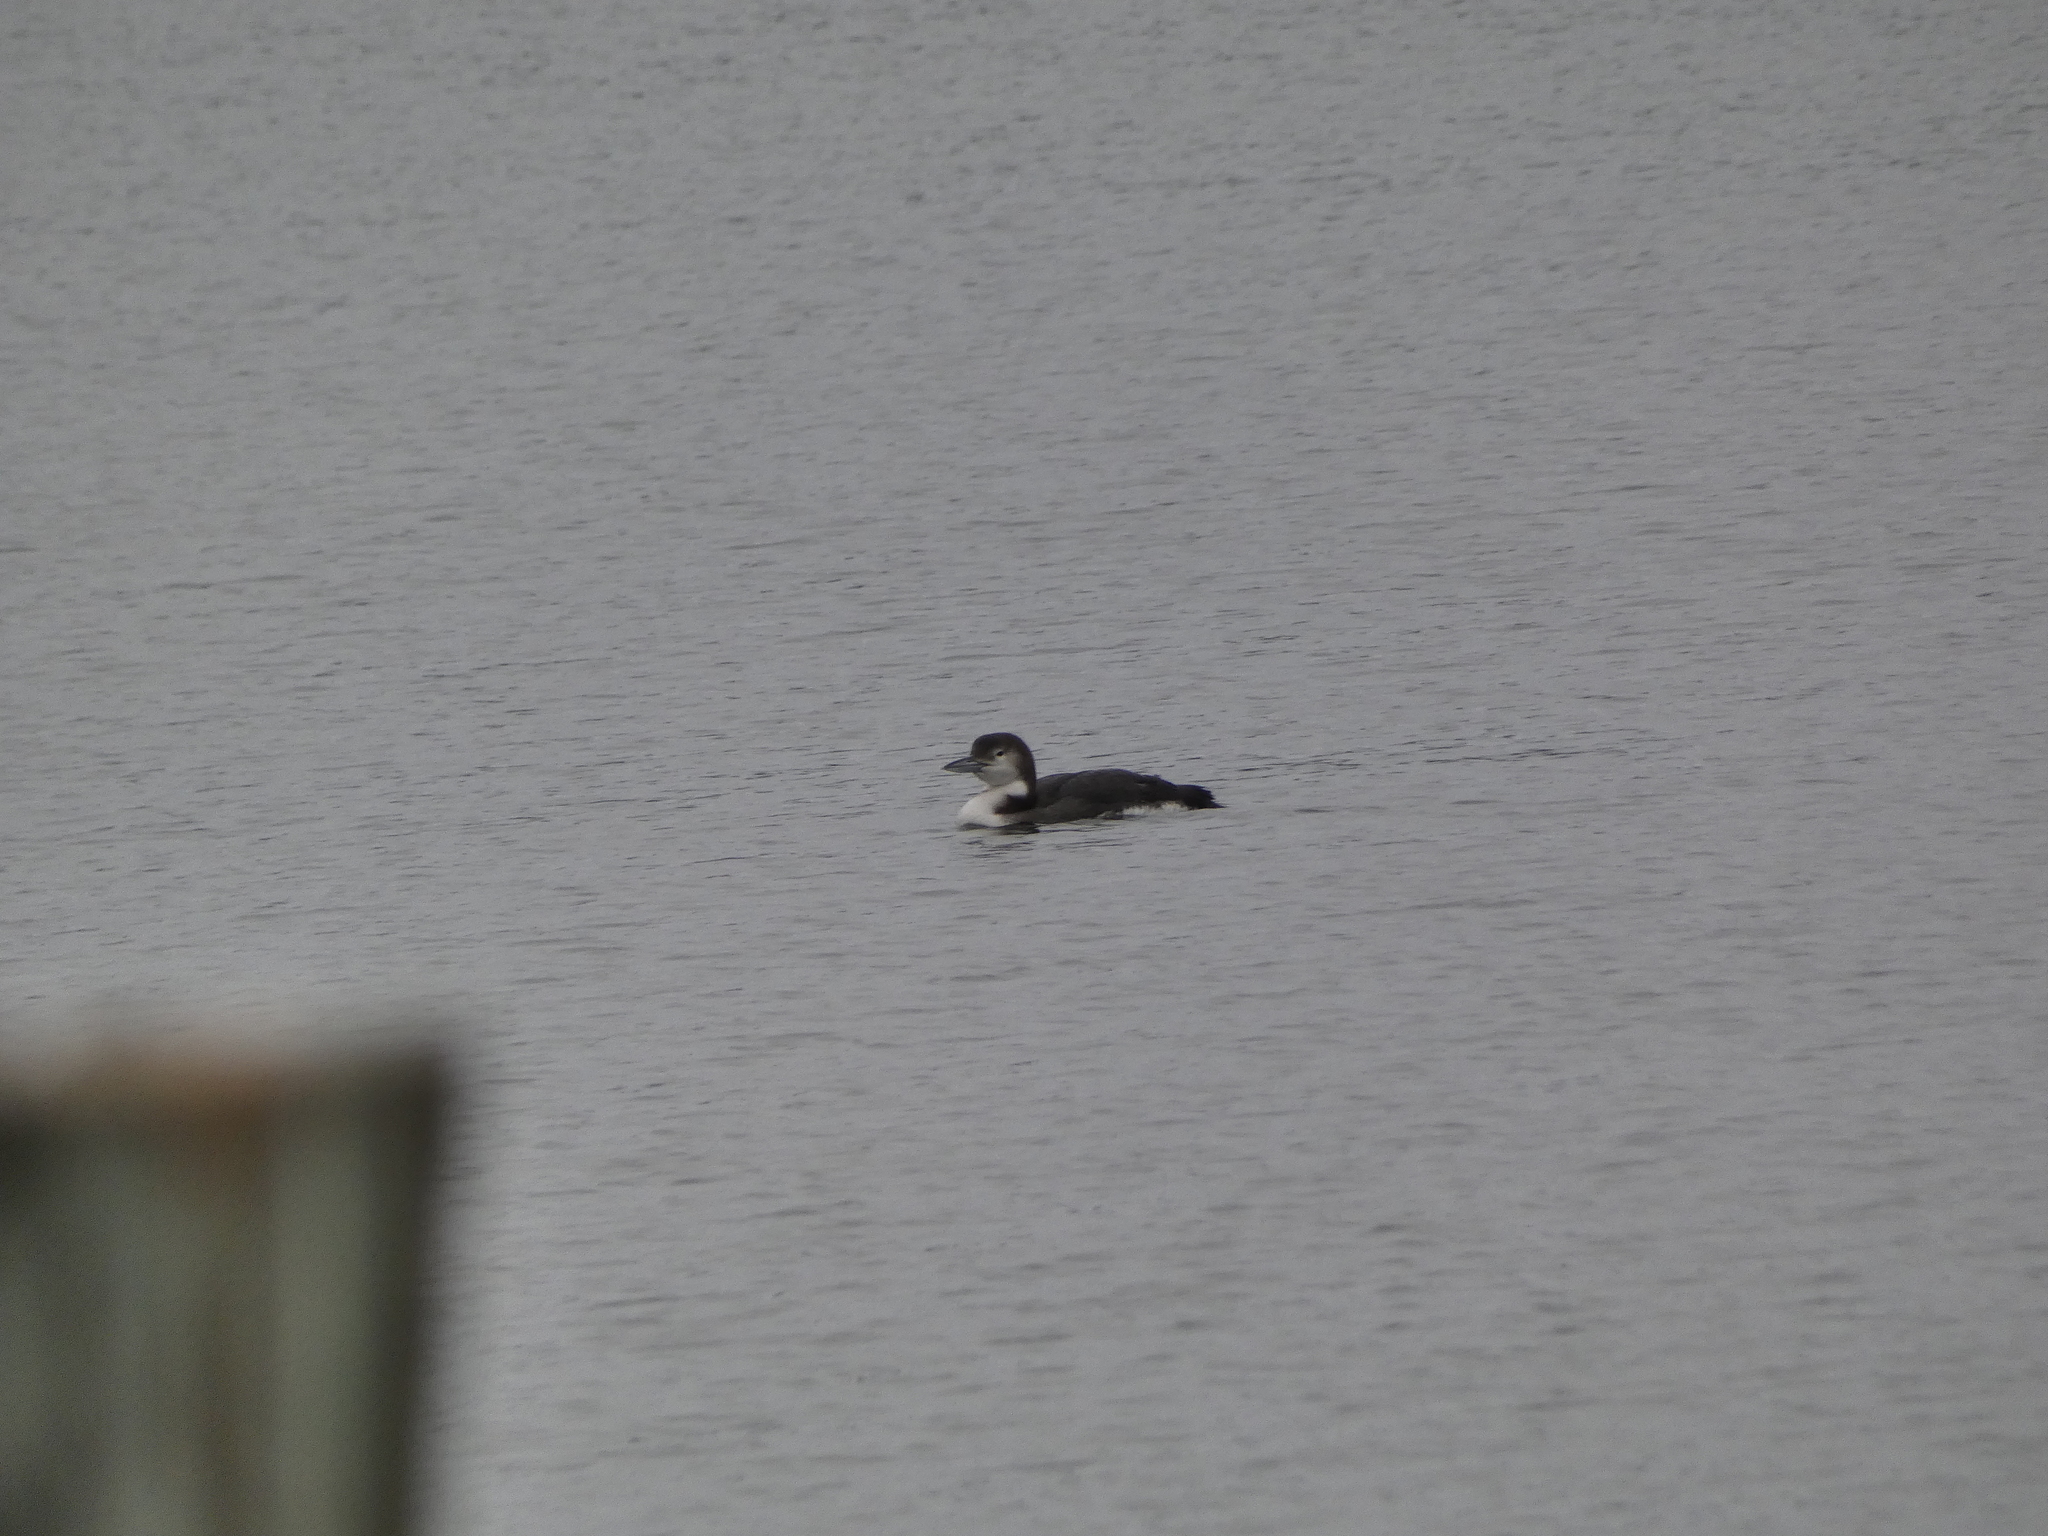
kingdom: Animalia
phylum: Chordata
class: Aves
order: Gaviiformes
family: Gaviidae
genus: Gavia
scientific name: Gavia immer
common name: Common loon
